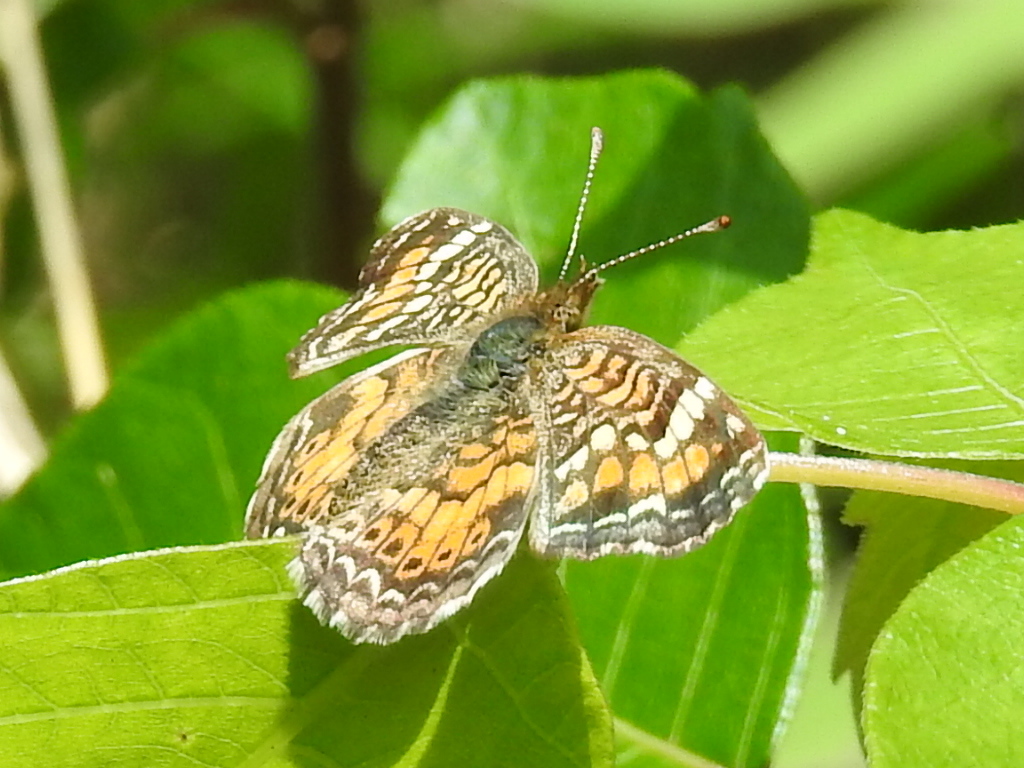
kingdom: Animalia
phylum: Arthropoda
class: Insecta
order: Lepidoptera
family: Nymphalidae
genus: Phyciodes
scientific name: Phyciodes phaon
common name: Phaon crescent
